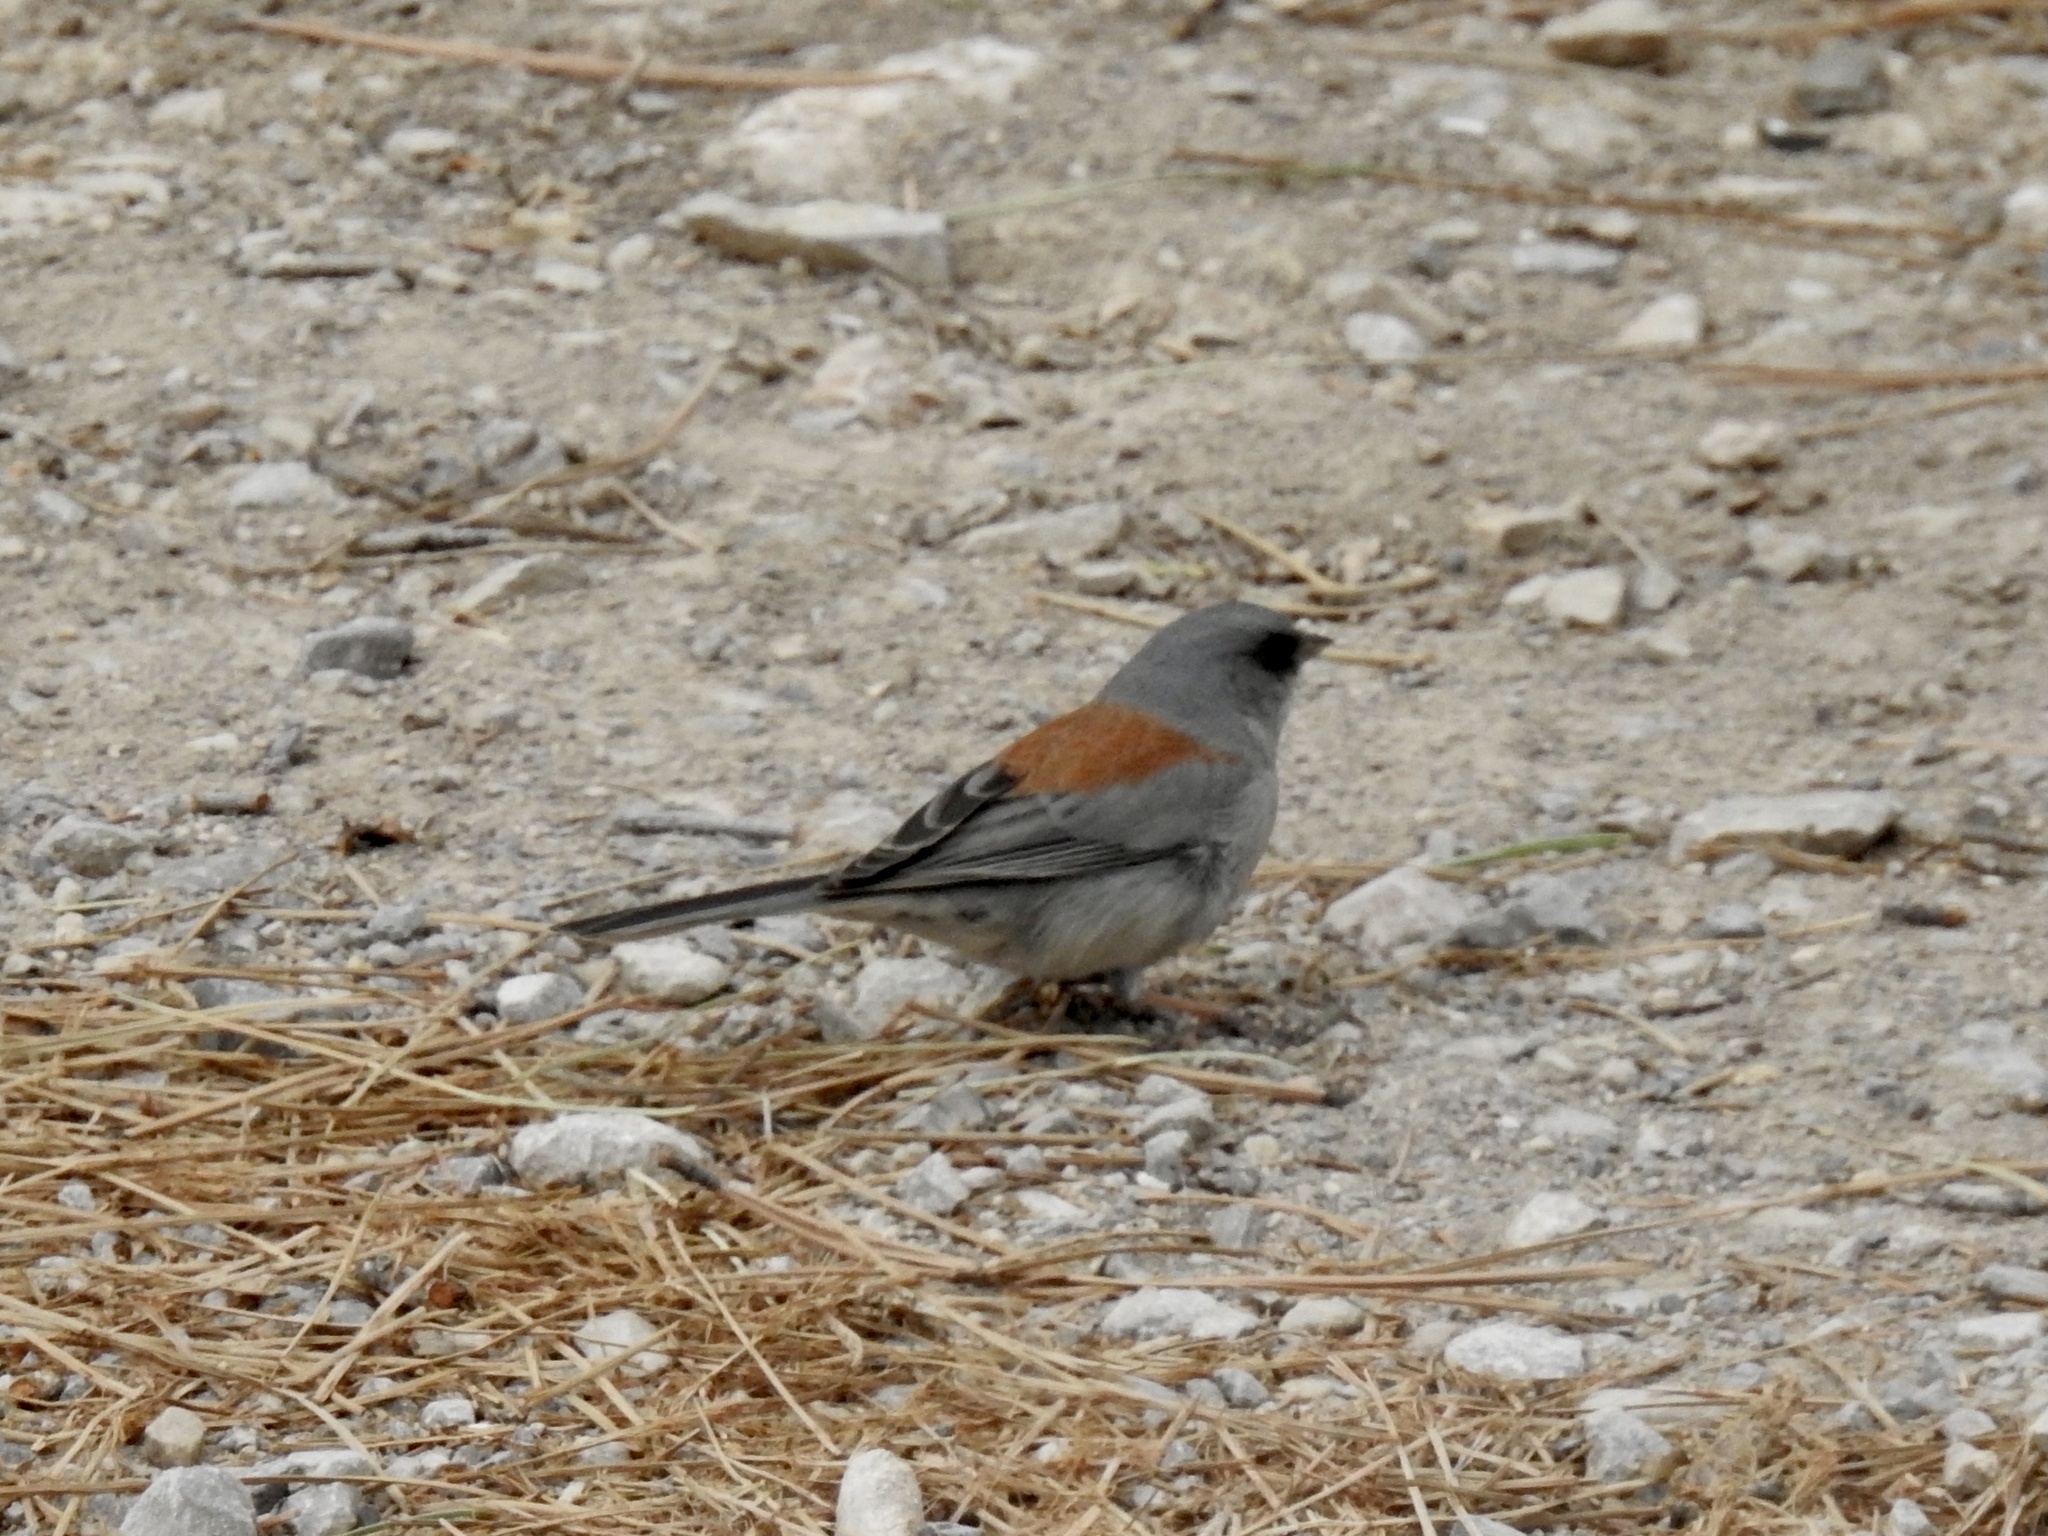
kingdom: Animalia
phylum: Chordata
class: Aves
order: Passeriformes
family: Passerellidae
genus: Junco
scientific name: Junco hyemalis
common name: Dark-eyed junco
